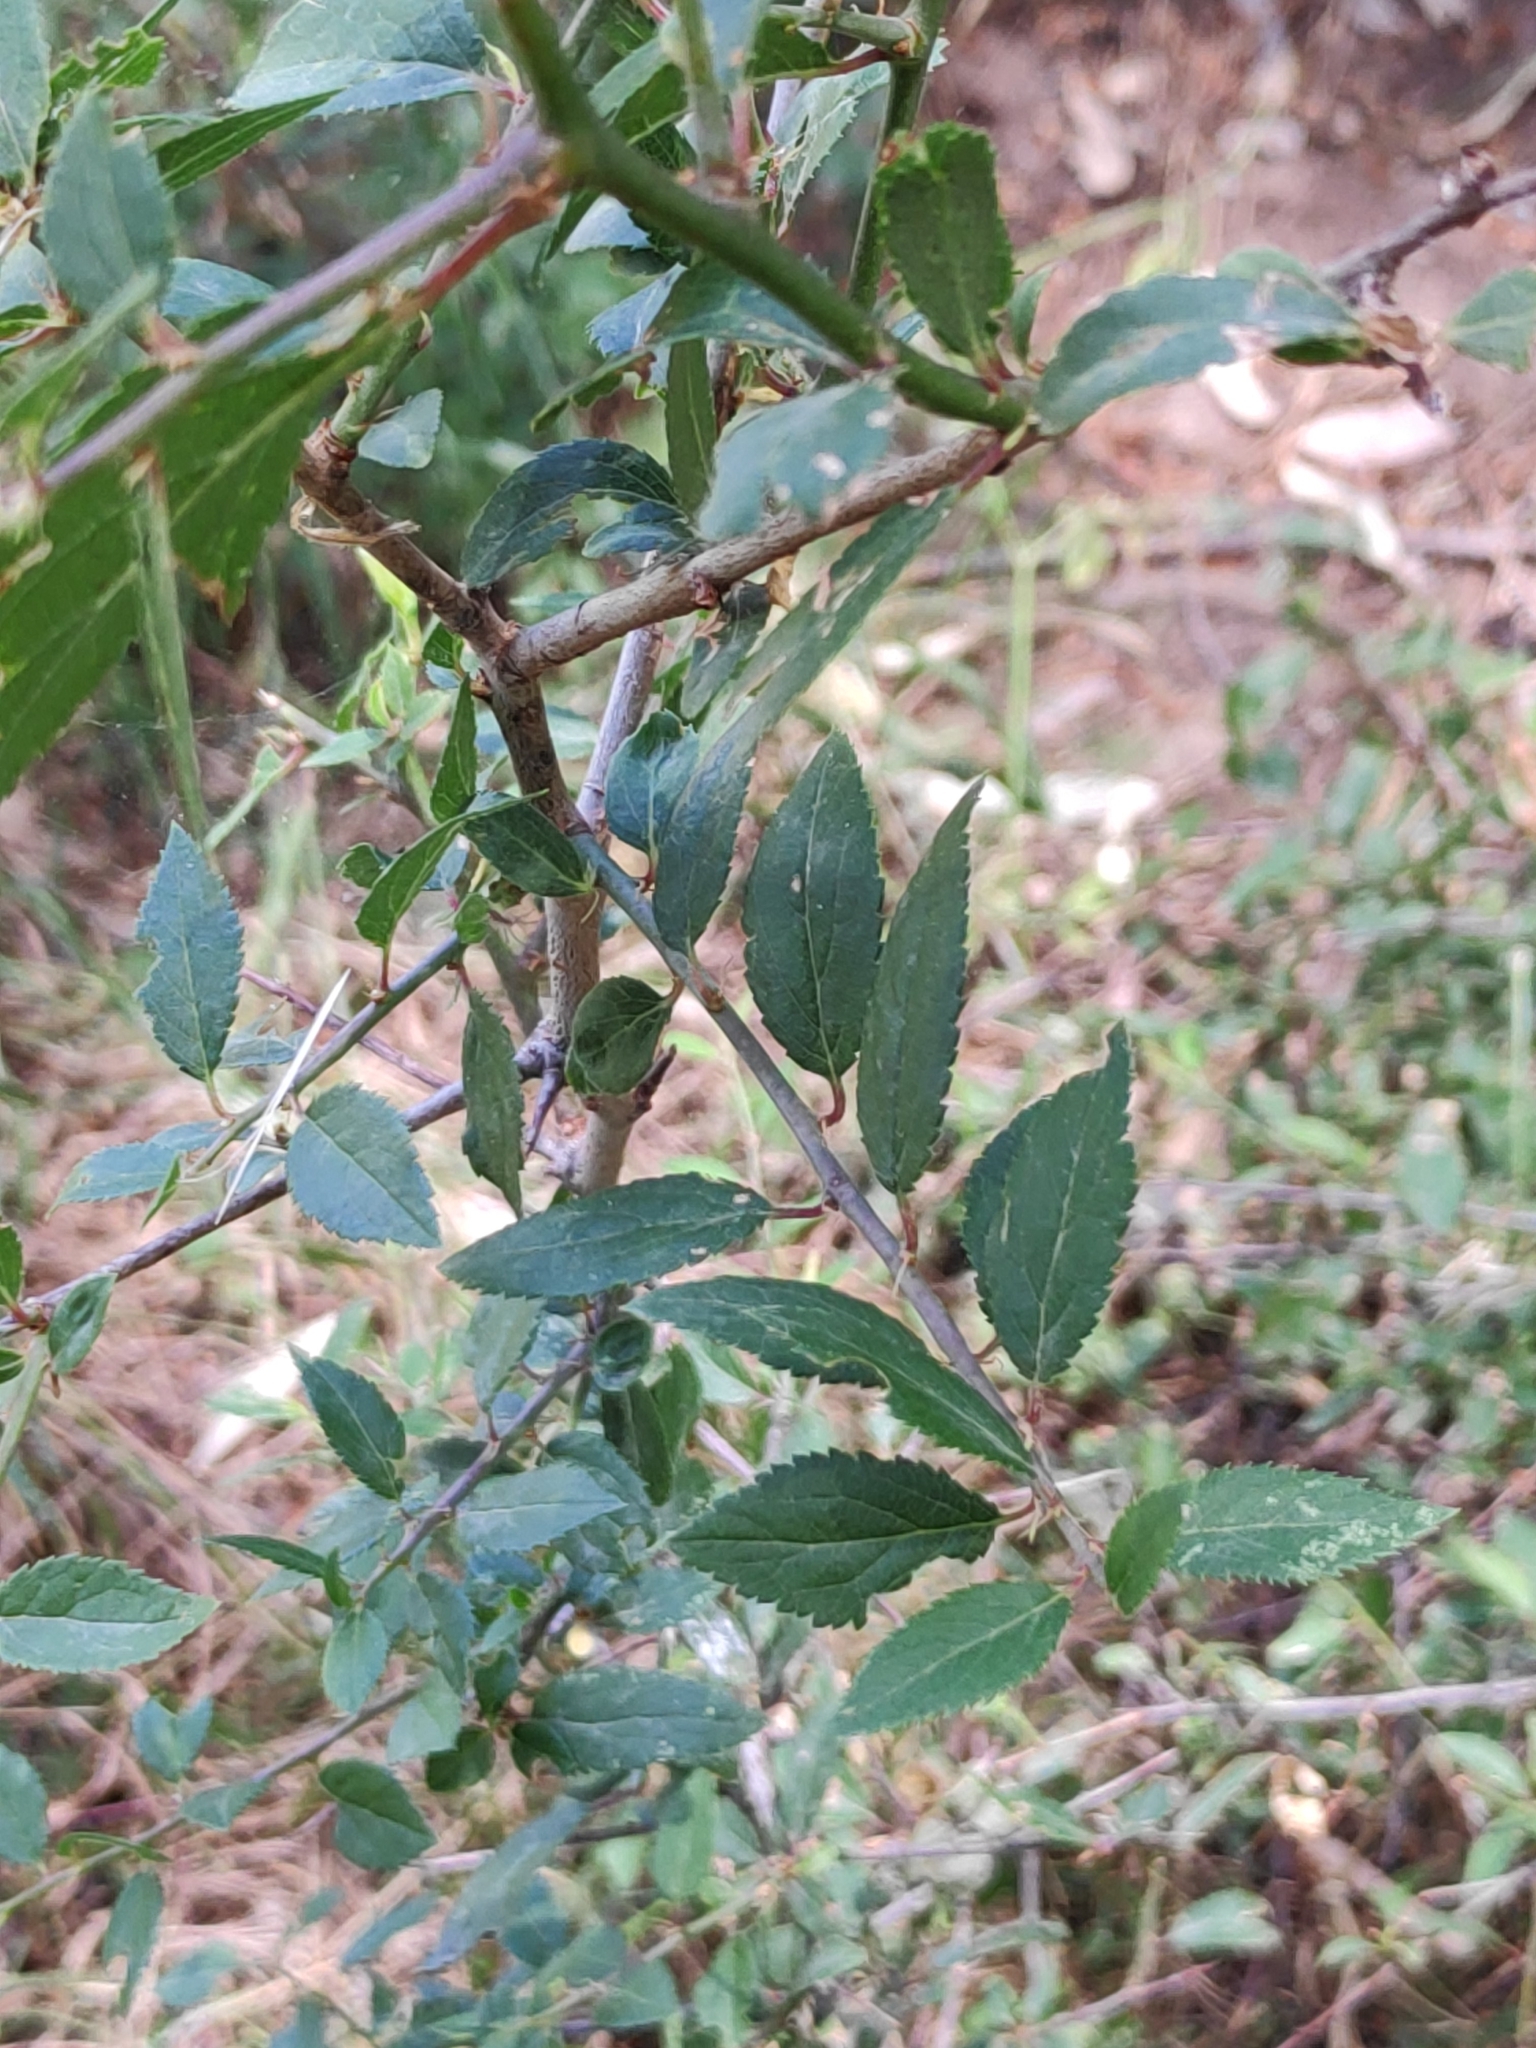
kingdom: Plantae
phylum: Tracheophyta
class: Magnoliopsida
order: Rosales
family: Rosaceae
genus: Prunus
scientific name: Prunus spinosa
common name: Blackthorn
